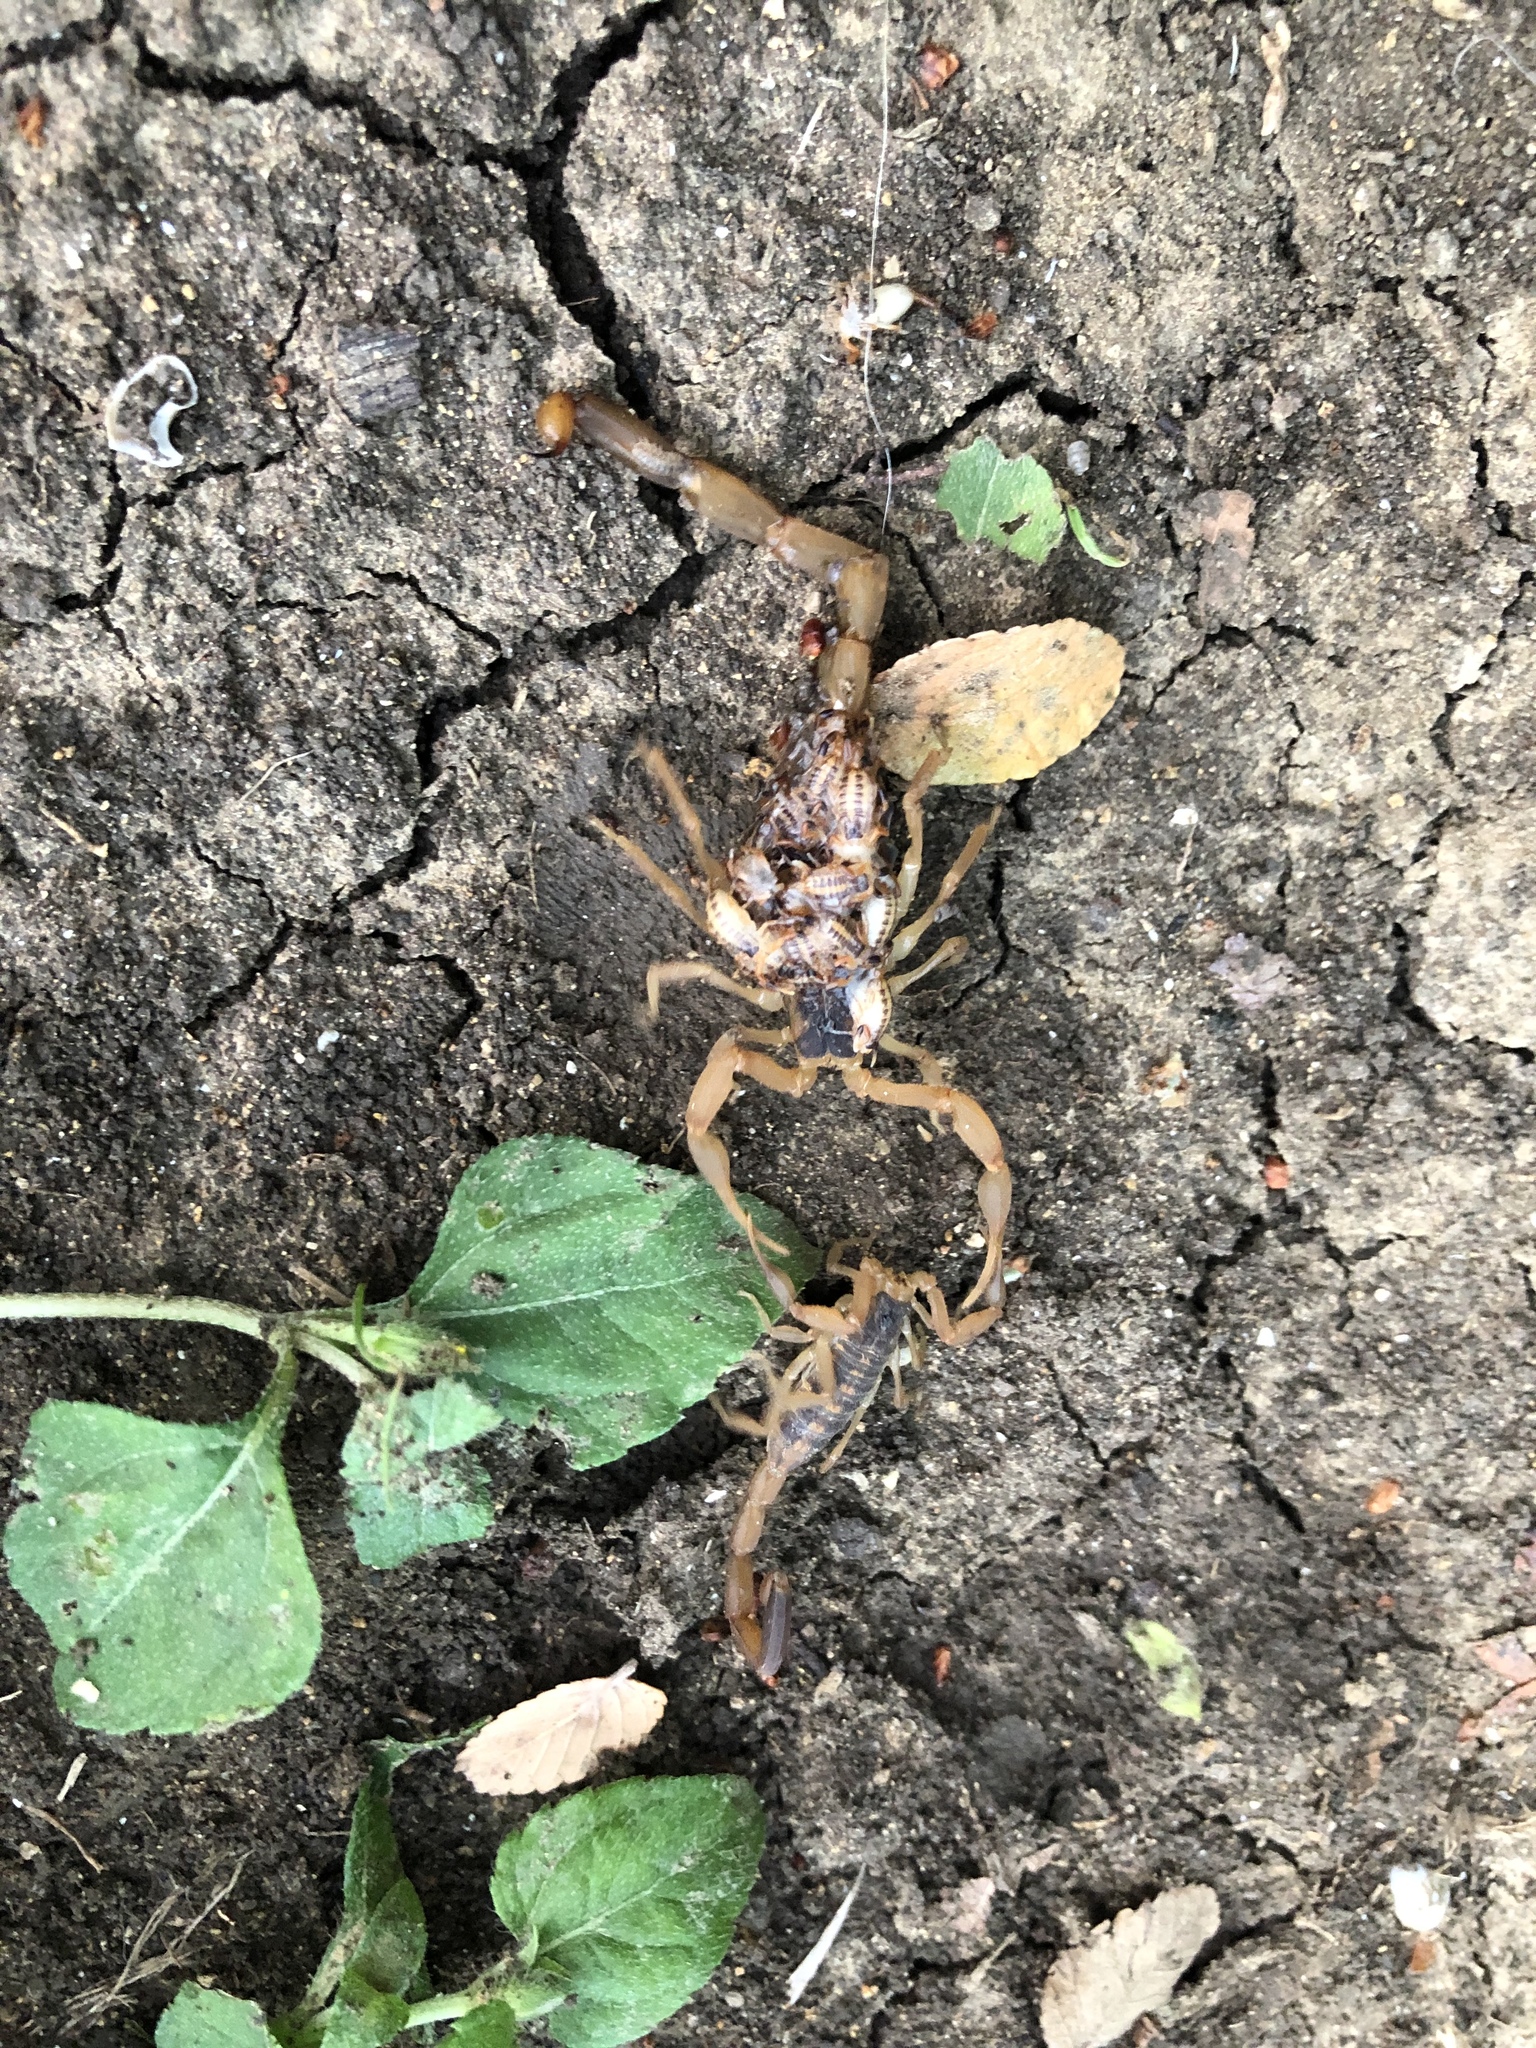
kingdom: Animalia
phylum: Arthropoda
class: Arachnida
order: Scorpiones
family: Buthidae
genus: Centruroides
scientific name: Centruroides vittatus
